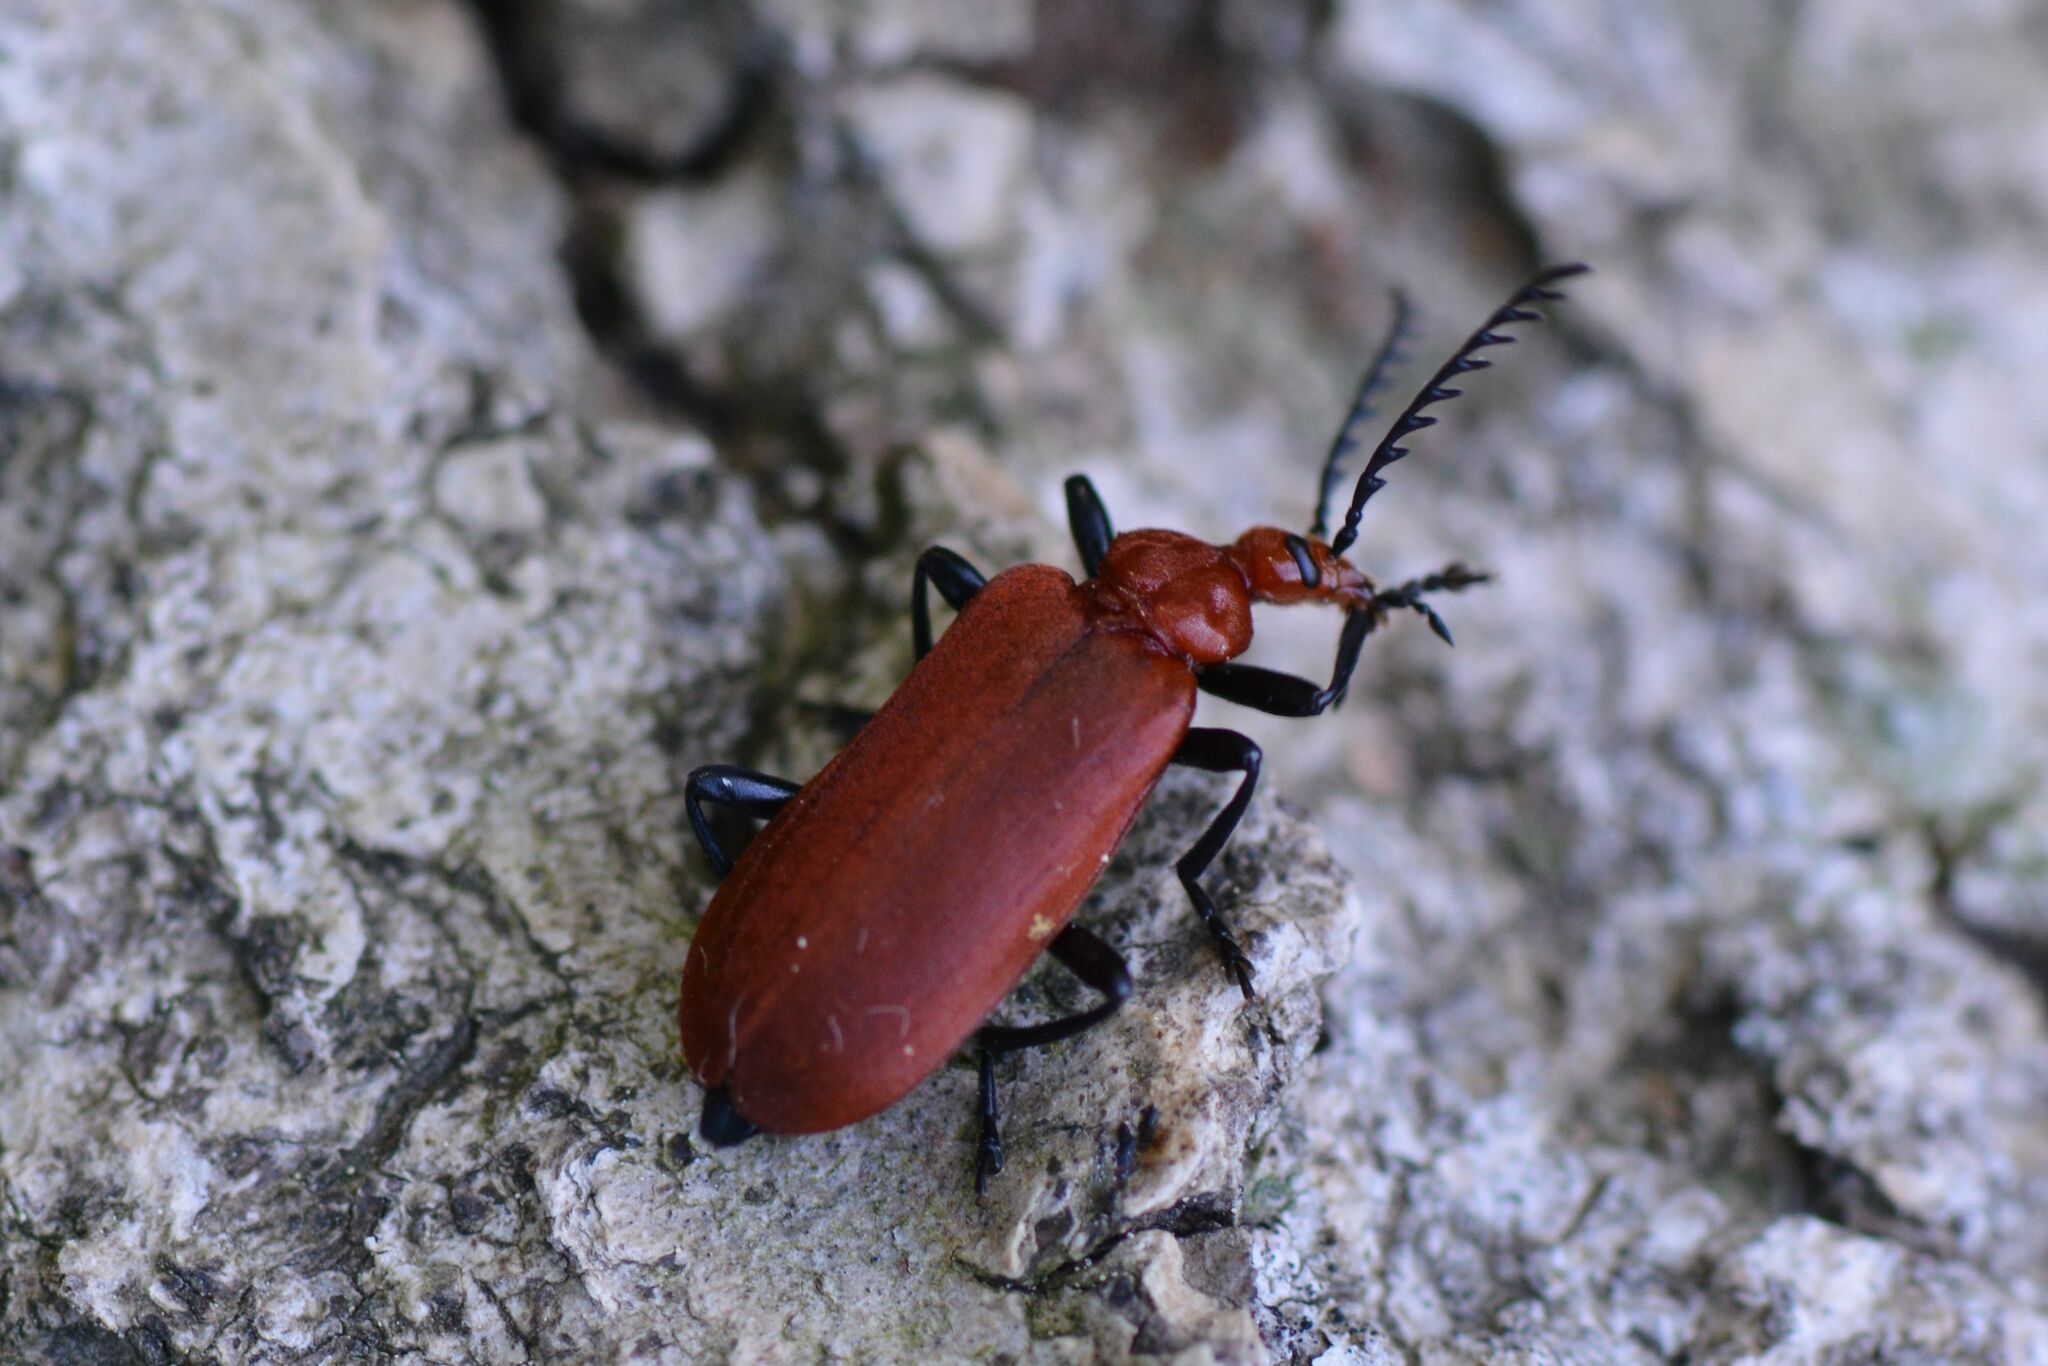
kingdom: Animalia
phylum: Arthropoda
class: Insecta
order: Coleoptera
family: Pyrochroidae
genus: Pyrochroa
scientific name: Pyrochroa serraticornis
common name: Red-headed cardinal beetle
